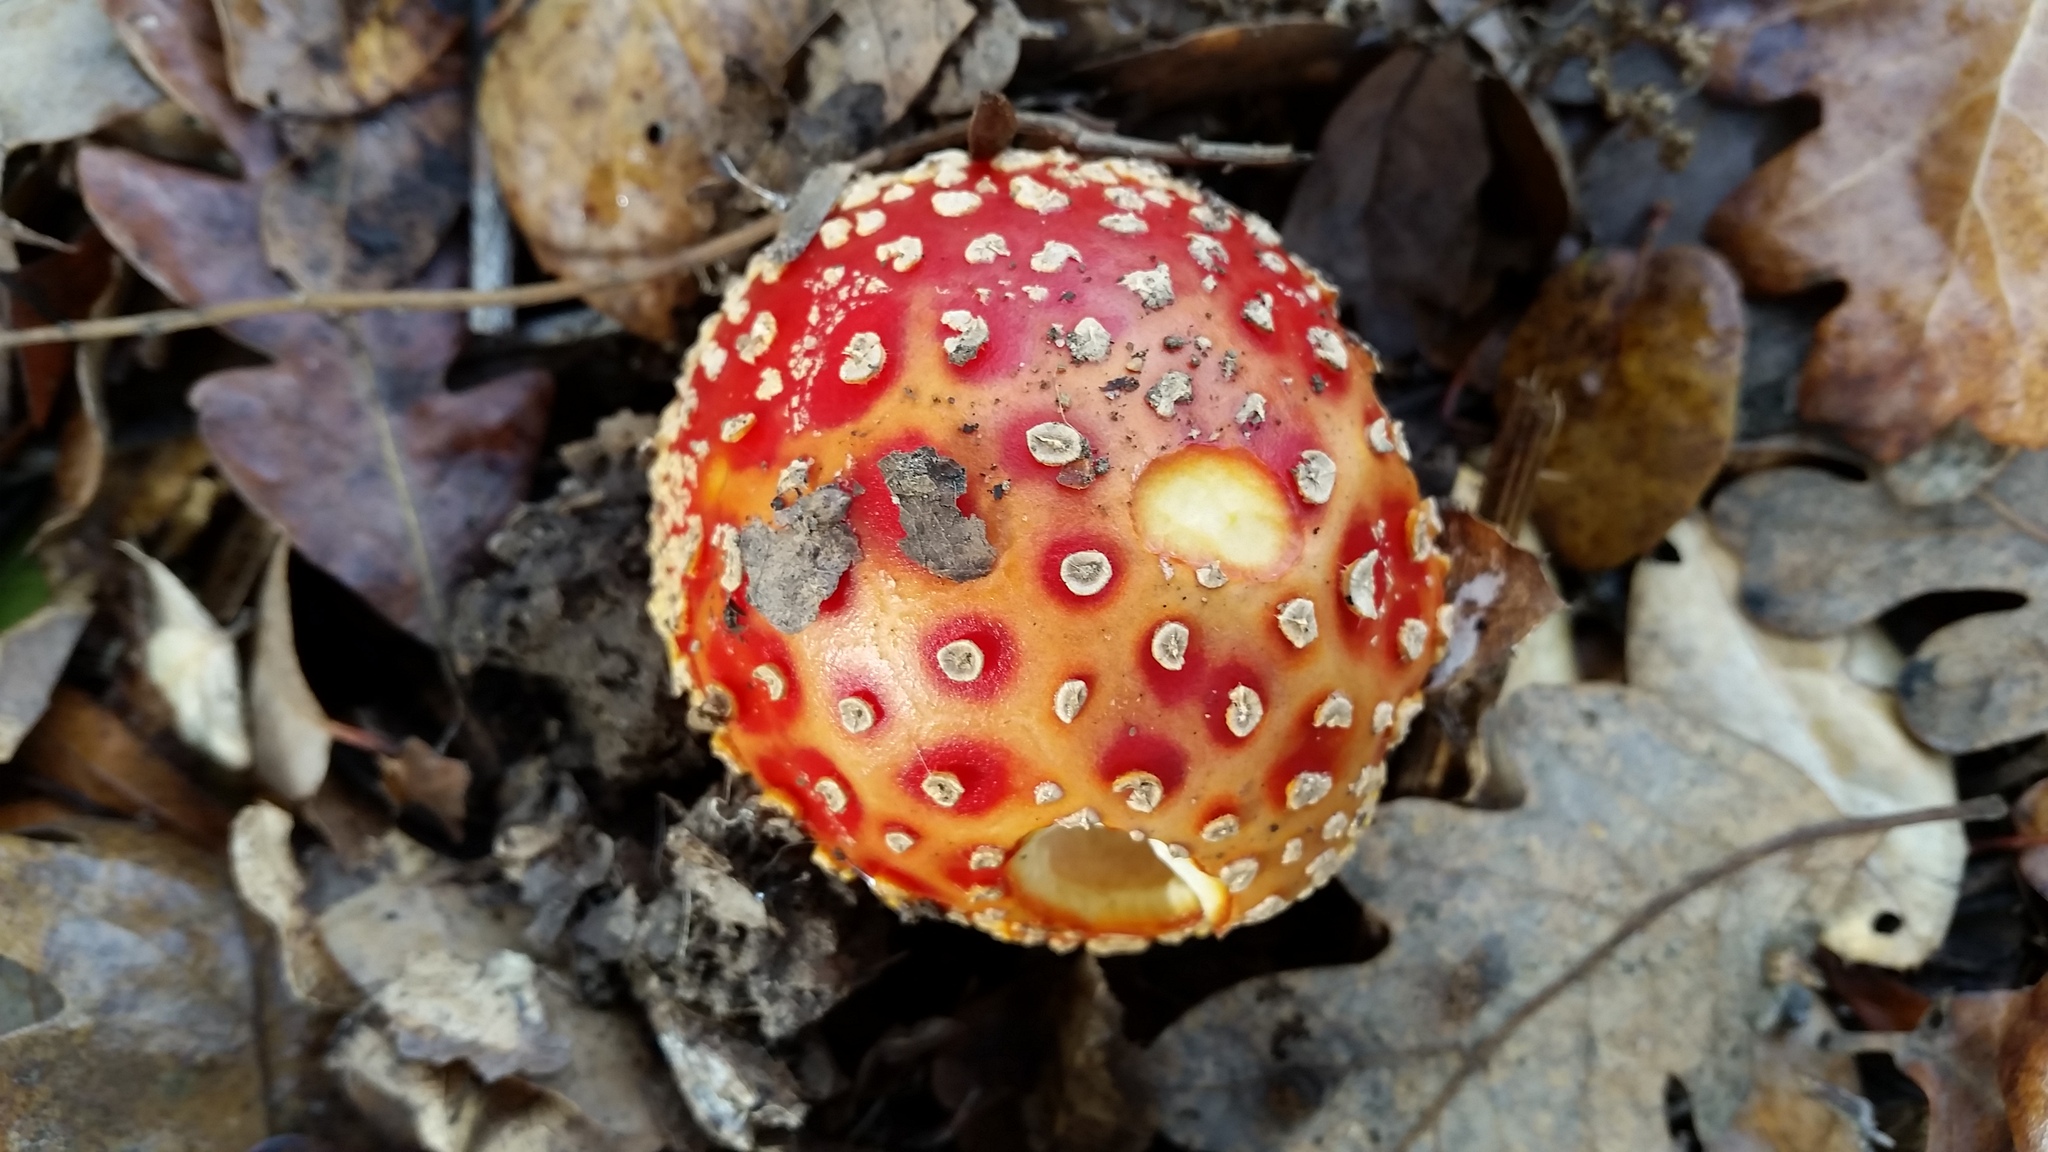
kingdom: Fungi
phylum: Basidiomycota
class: Agaricomycetes
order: Agaricales
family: Amanitaceae
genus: Amanita
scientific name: Amanita muscaria
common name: Fly agaric
